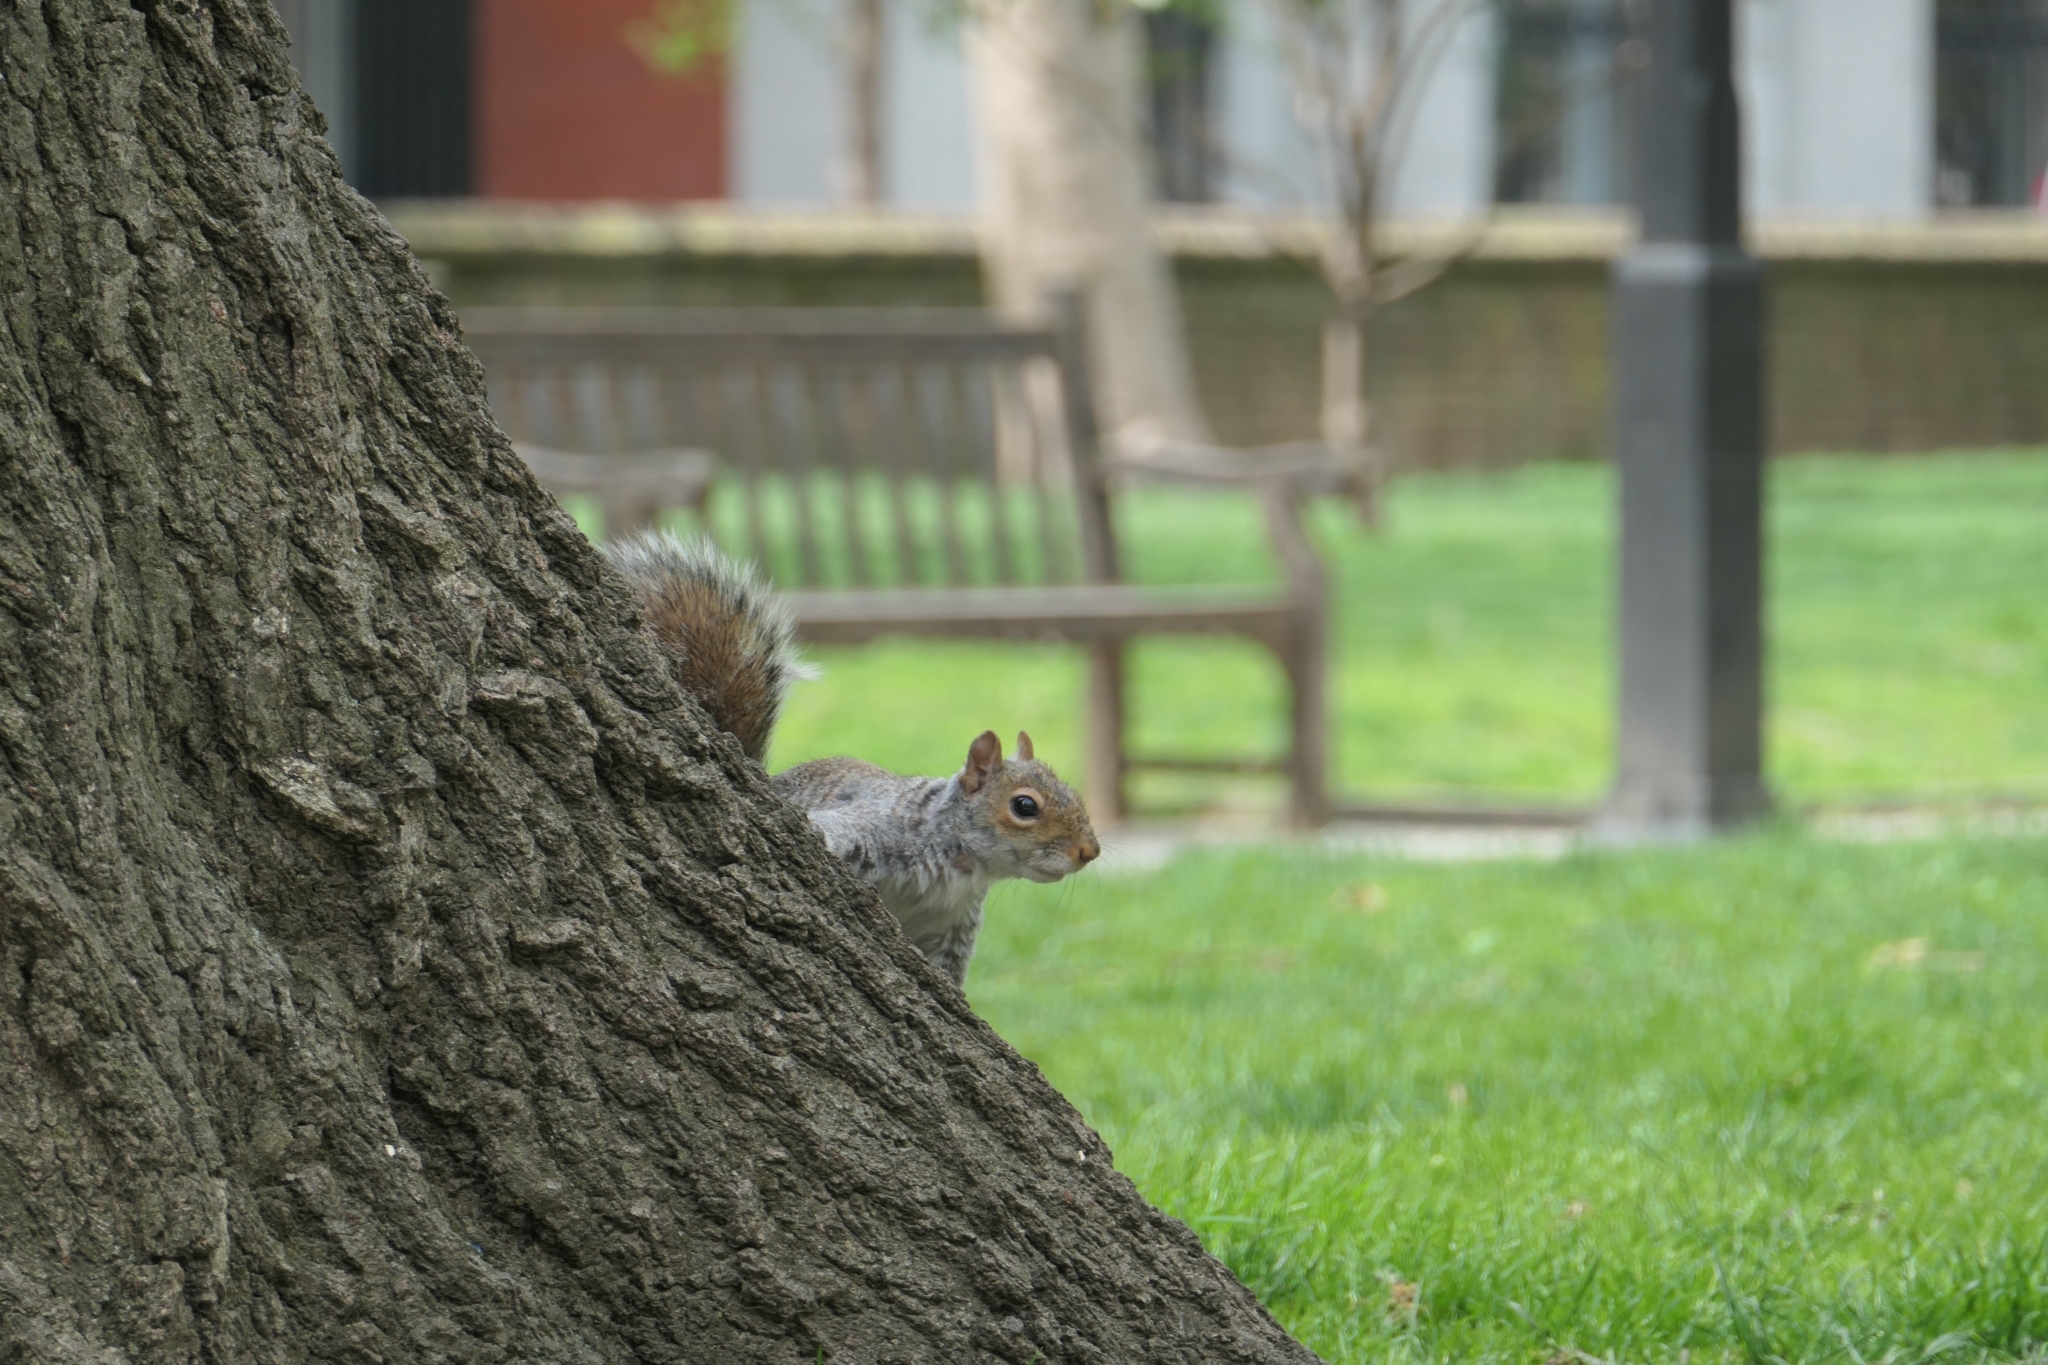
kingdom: Animalia
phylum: Chordata
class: Mammalia
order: Rodentia
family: Sciuridae
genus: Sciurus
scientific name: Sciurus carolinensis
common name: Eastern gray squirrel
